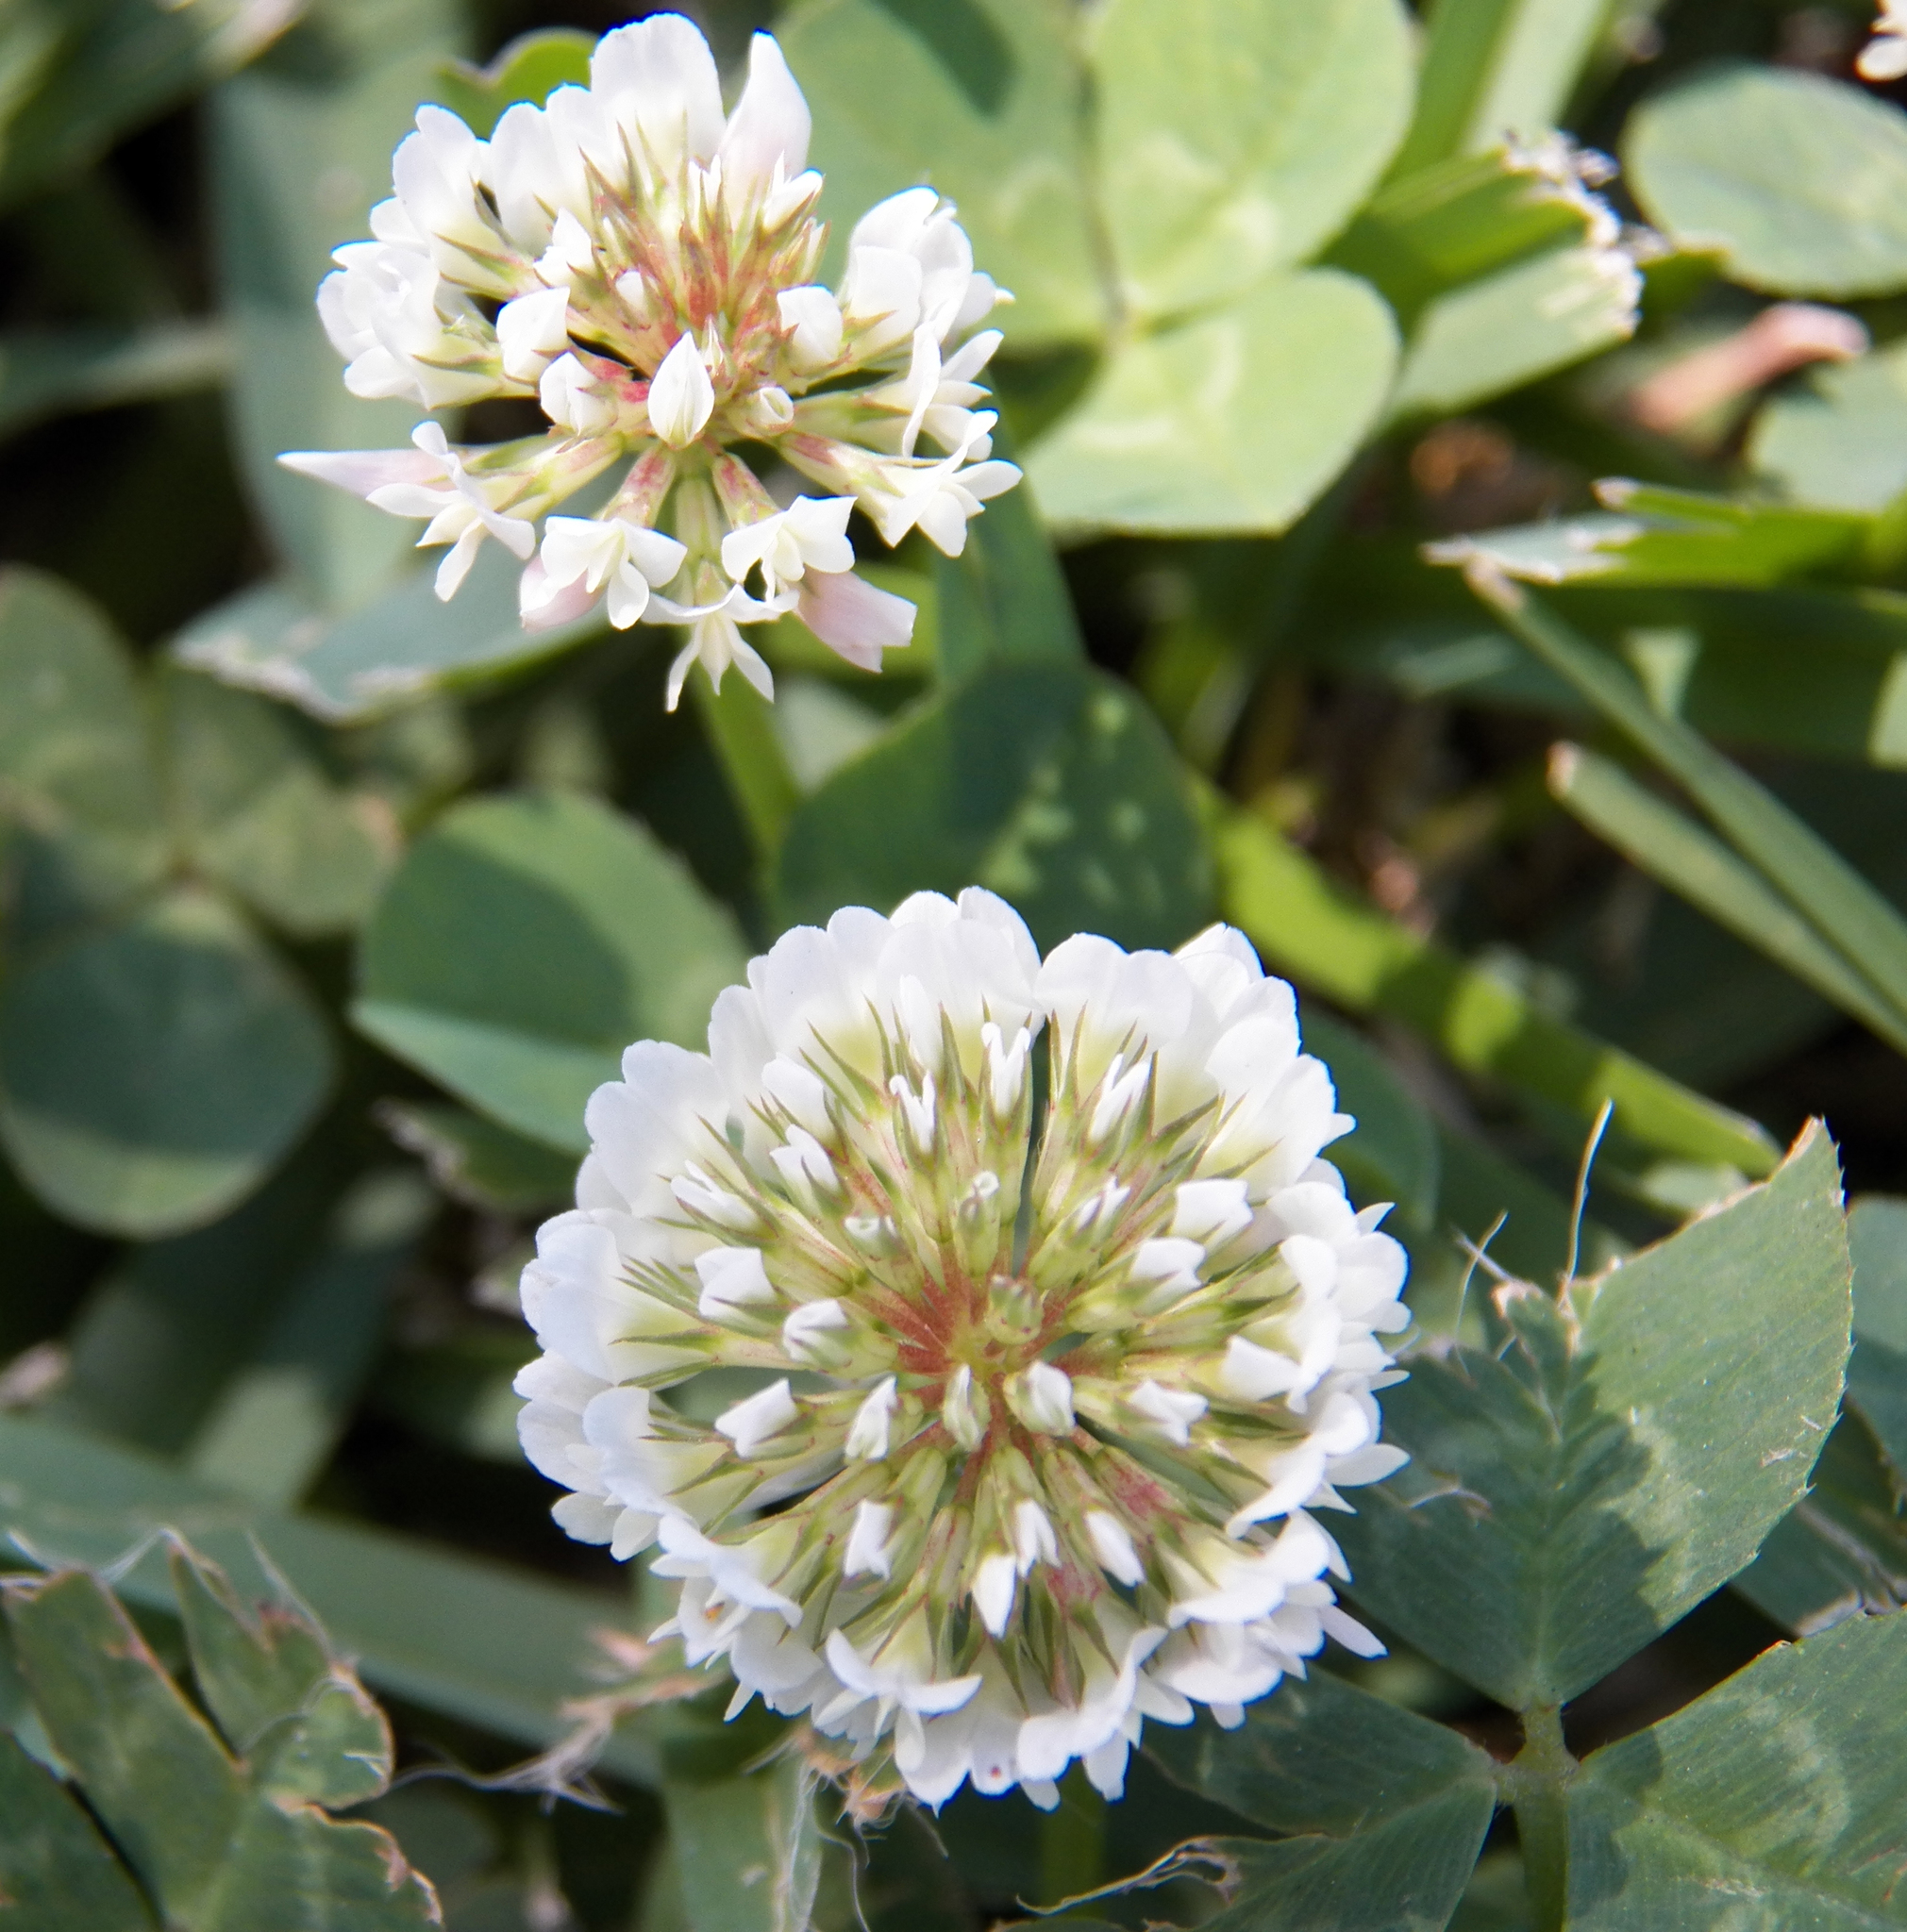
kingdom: Plantae
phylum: Tracheophyta
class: Magnoliopsida
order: Fabales
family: Fabaceae
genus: Trifolium
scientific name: Trifolium repens
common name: White clover
